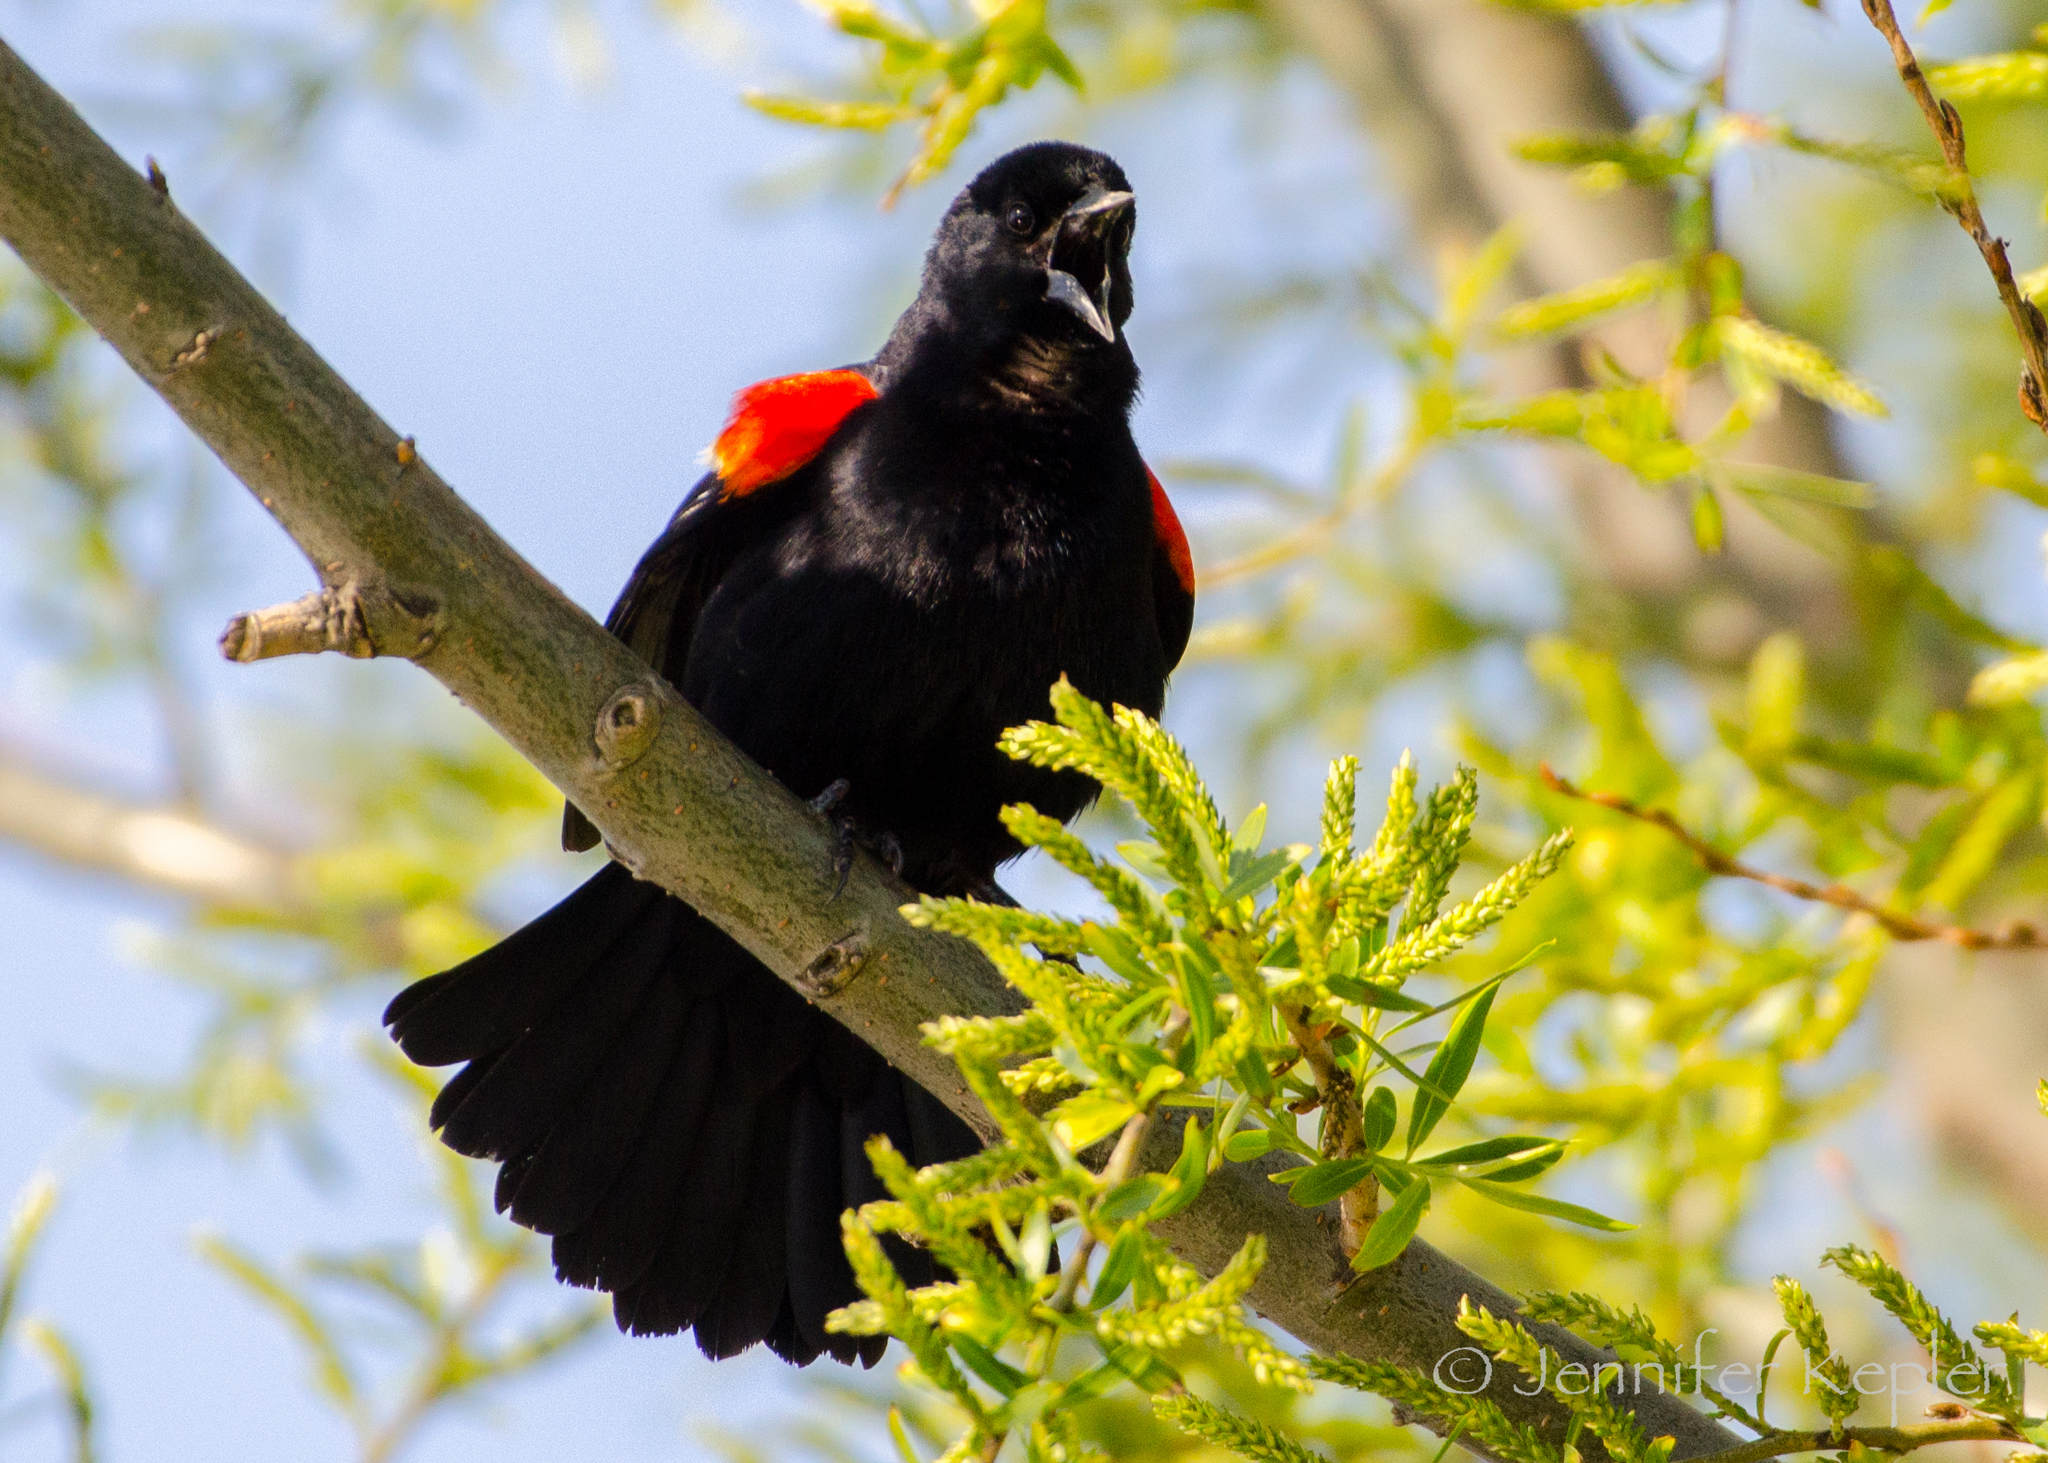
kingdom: Animalia
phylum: Chordata
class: Aves
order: Passeriformes
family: Icteridae
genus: Agelaius
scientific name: Agelaius phoeniceus
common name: Red-winged blackbird
